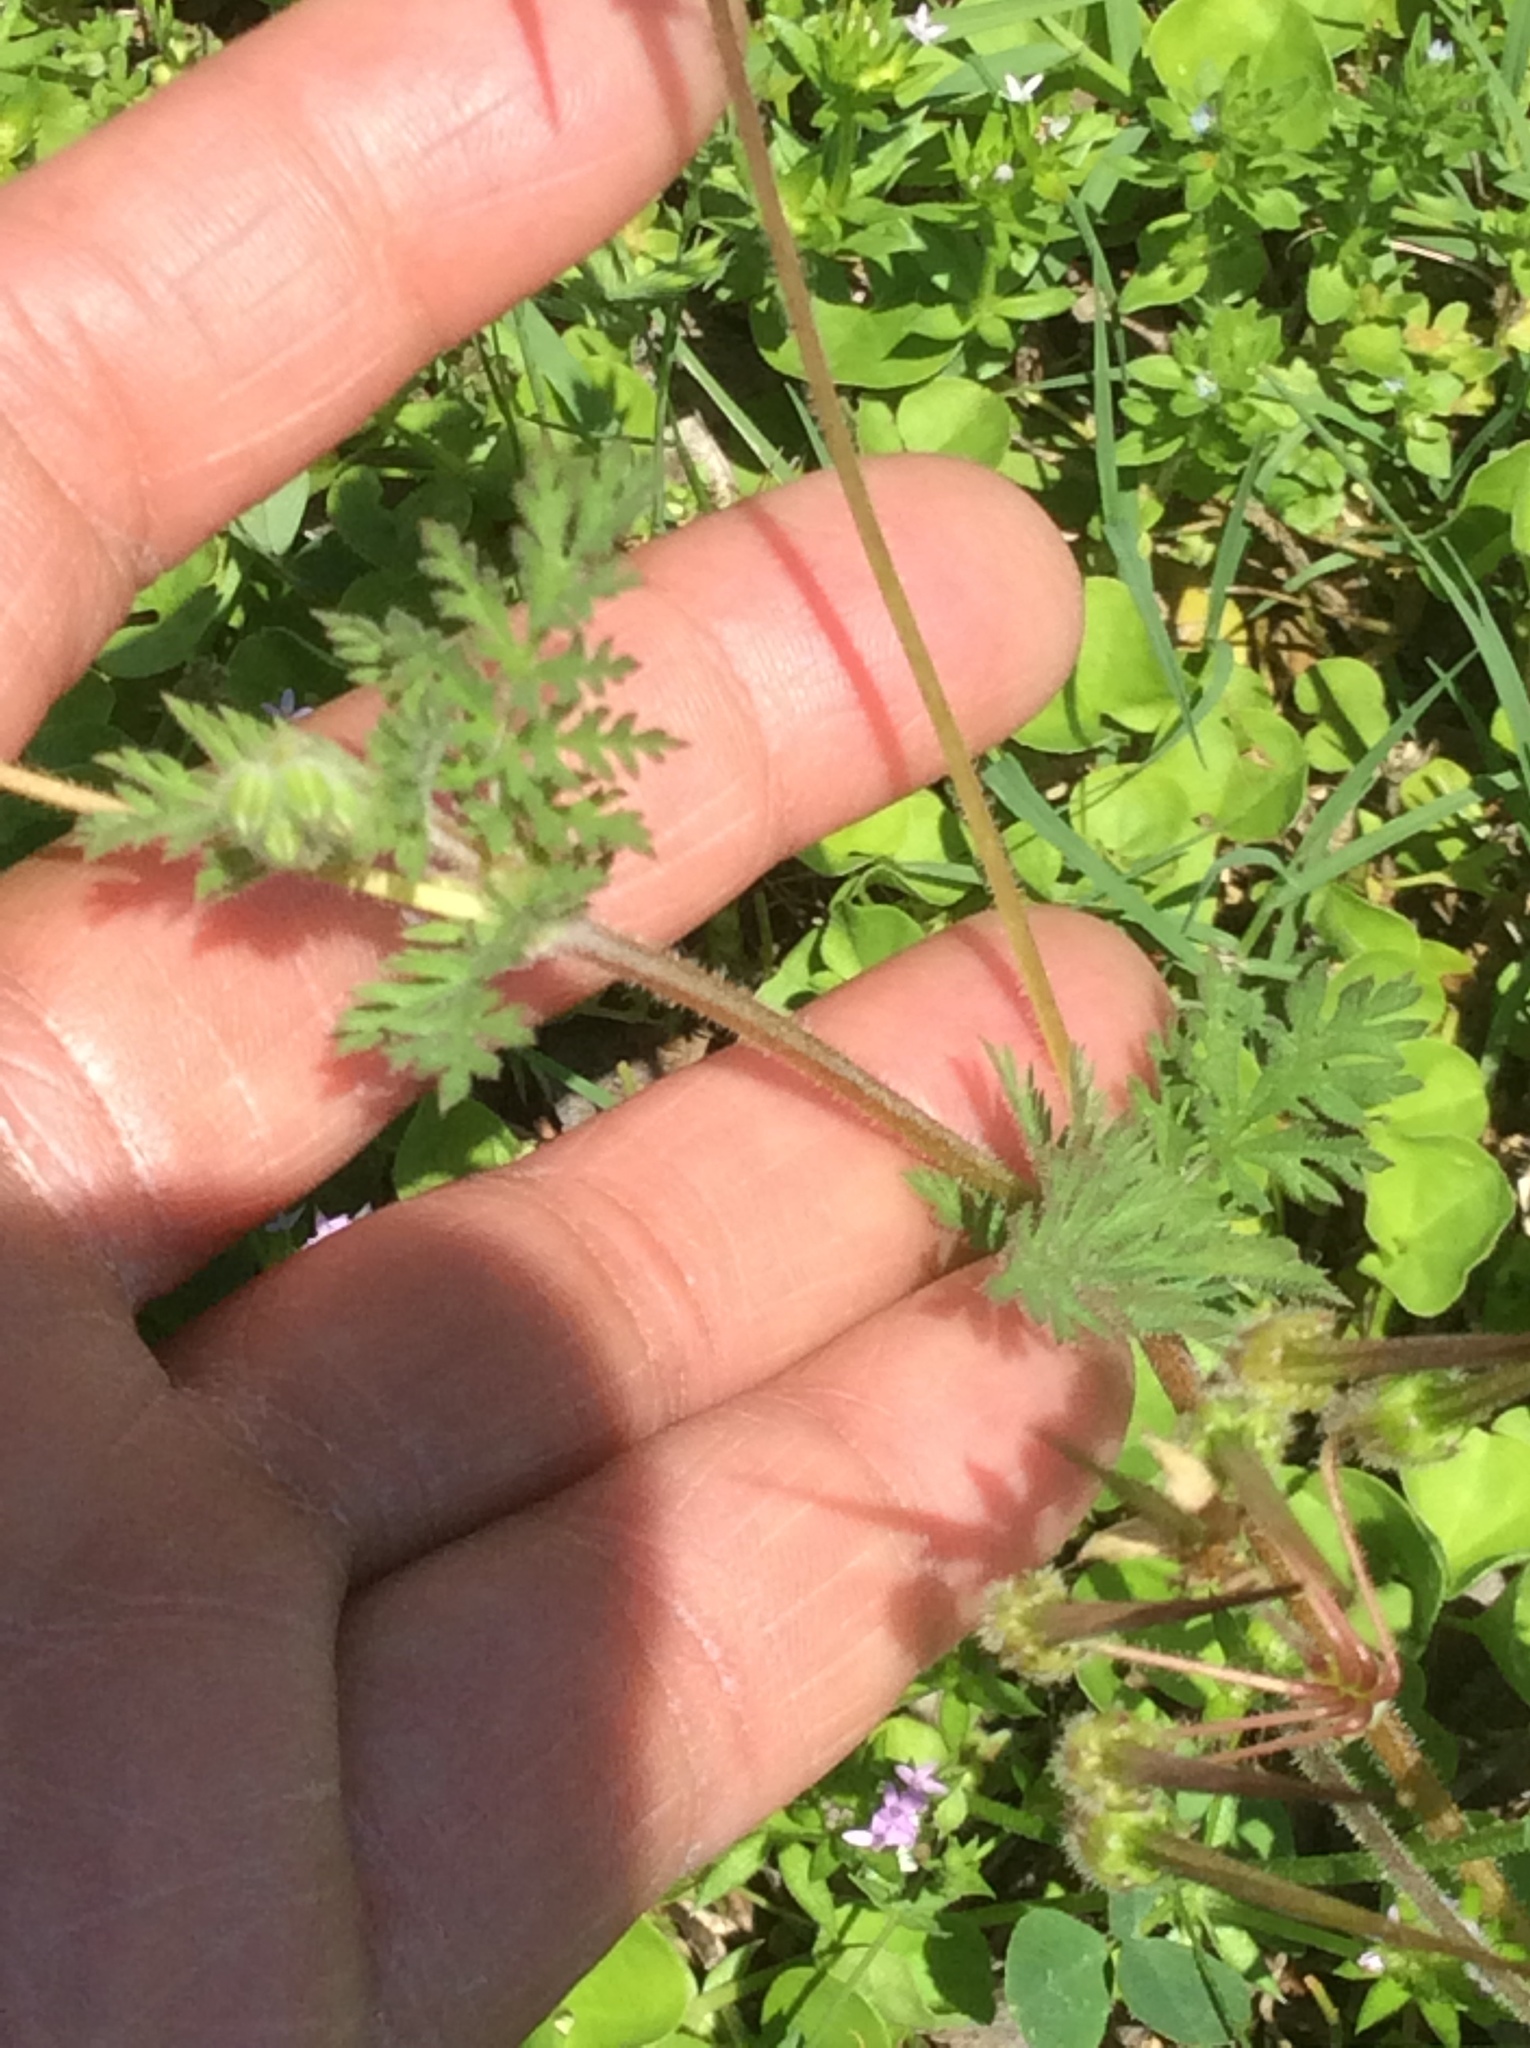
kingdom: Plantae
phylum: Tracheophyta
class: Magnoliopsida
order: Geraniales
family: Geraniaceae
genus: Erodium
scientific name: Erodium cicutarium
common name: Common stork's-bill
